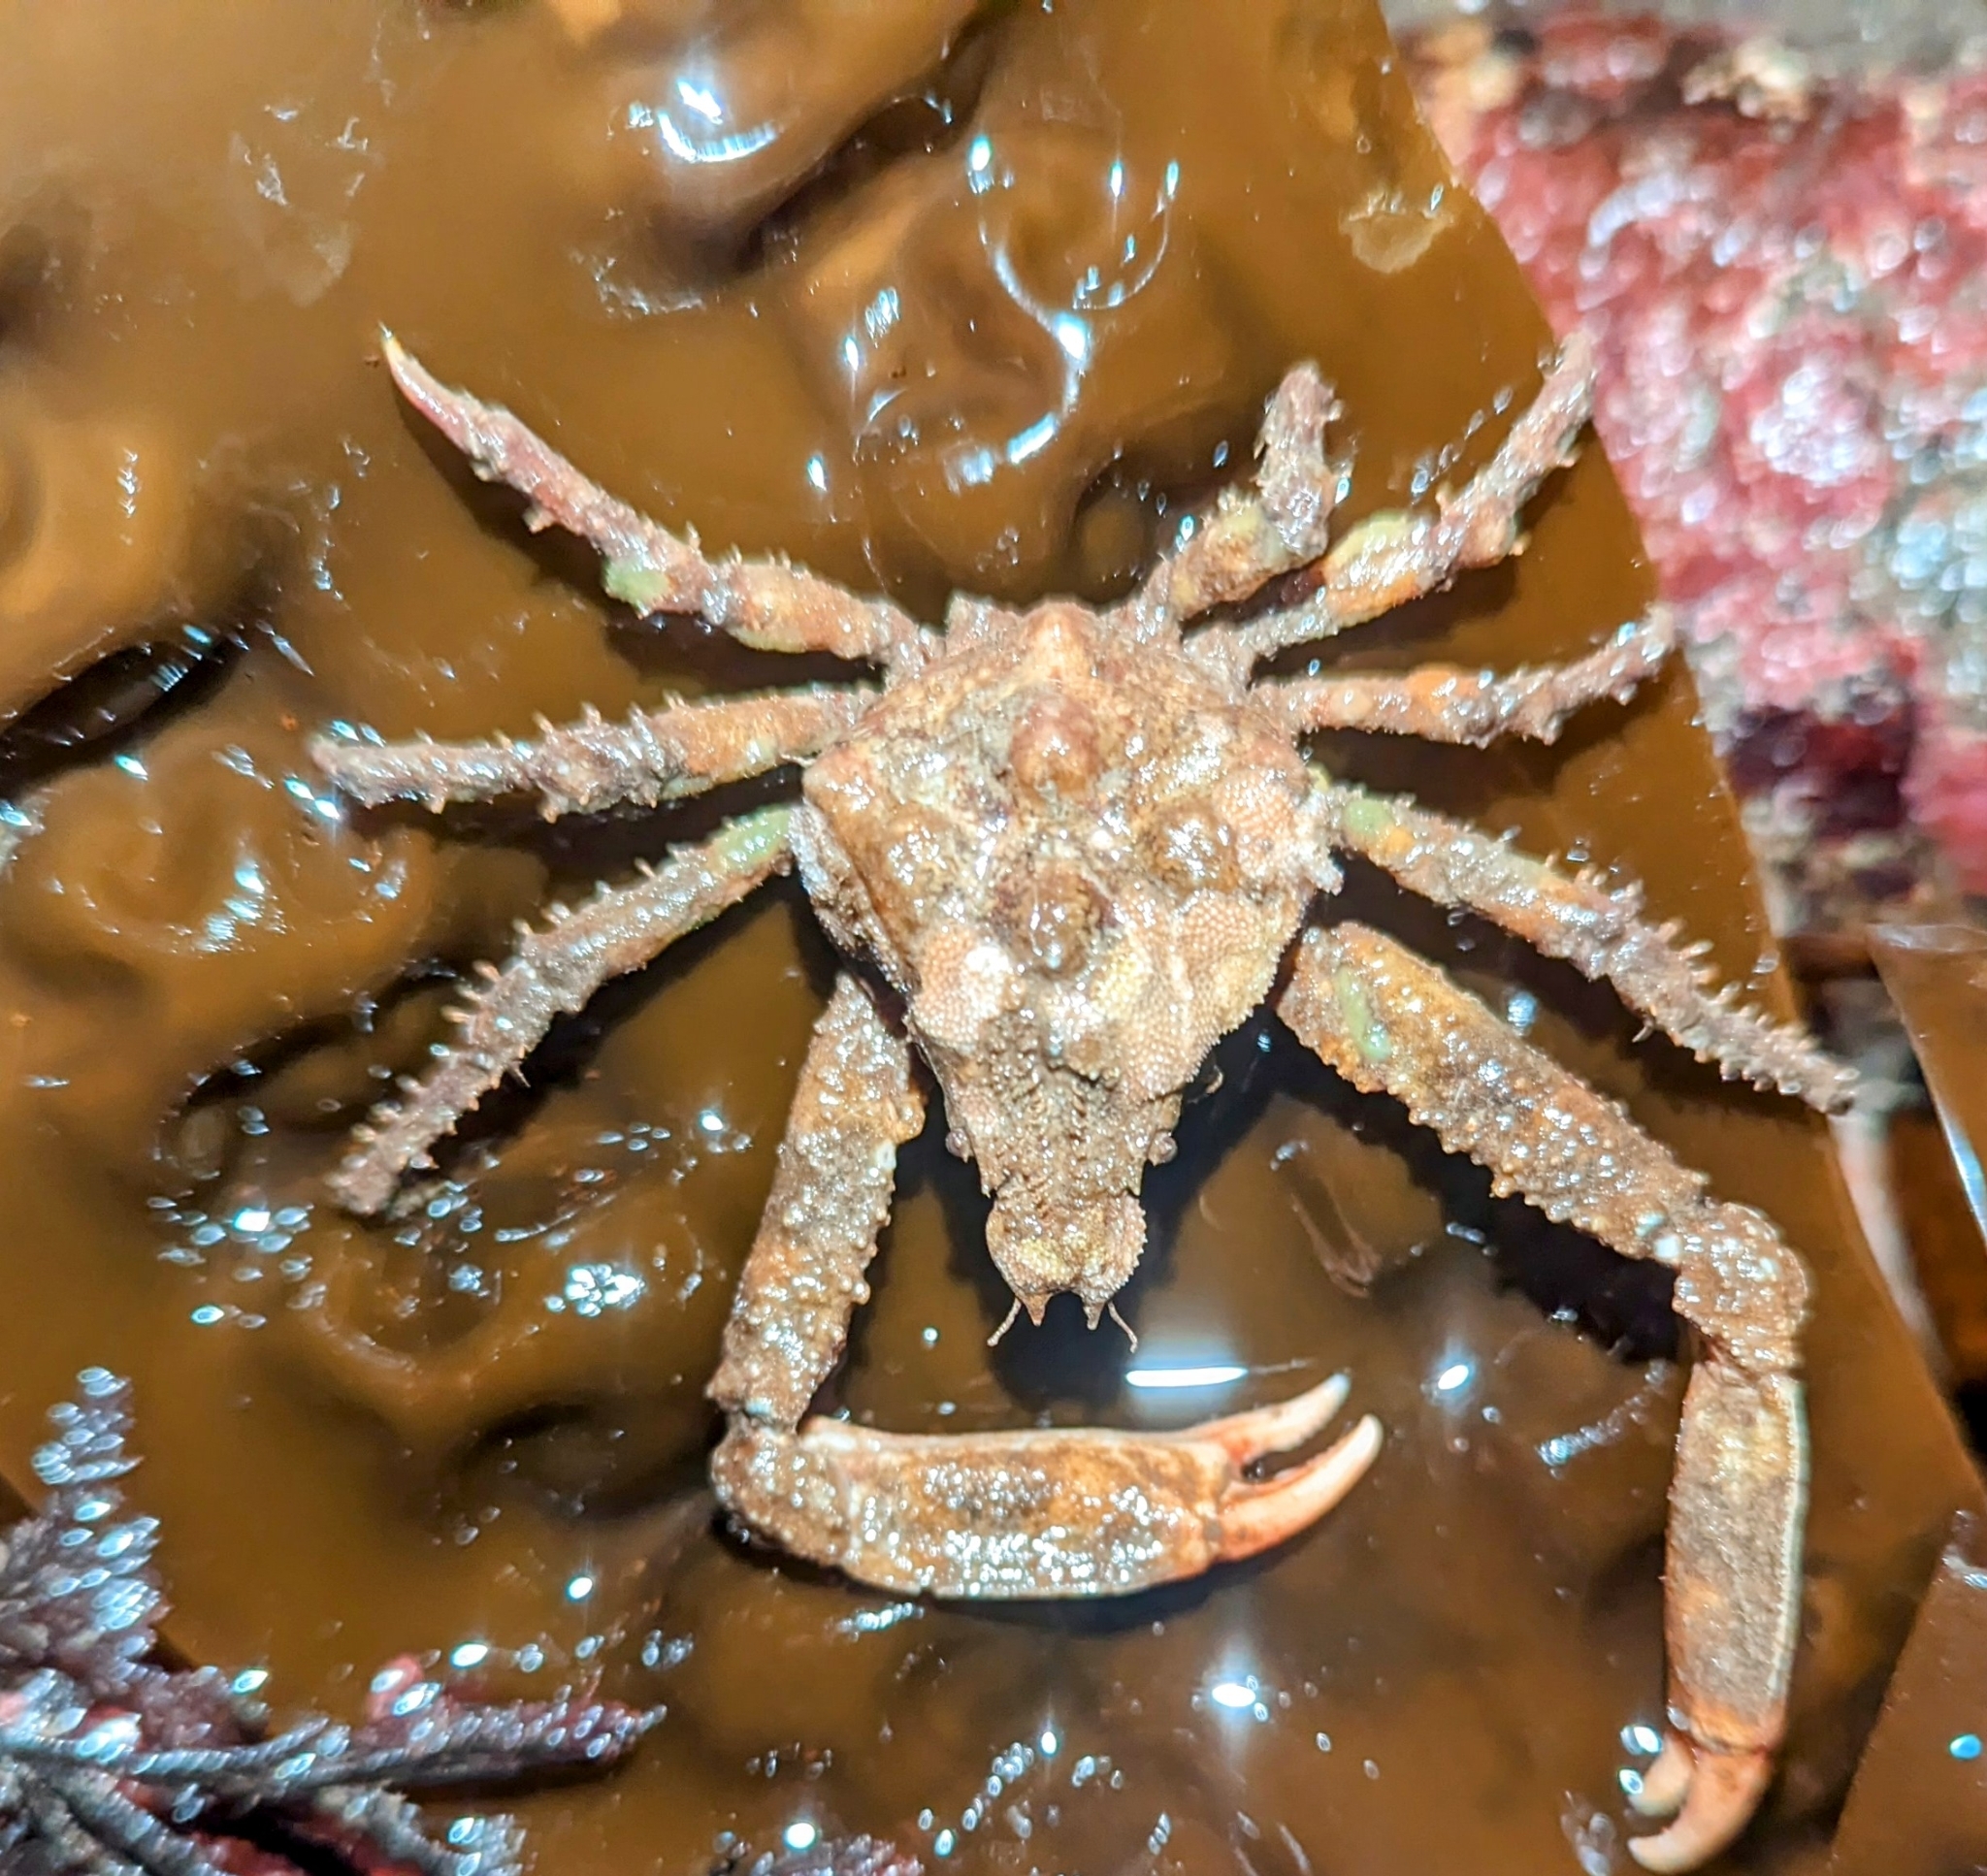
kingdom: Animalia
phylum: Arthropoda
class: Malacostraca
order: Decapoda
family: Epialtidae
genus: Scyra
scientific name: Scyra acutifrons
